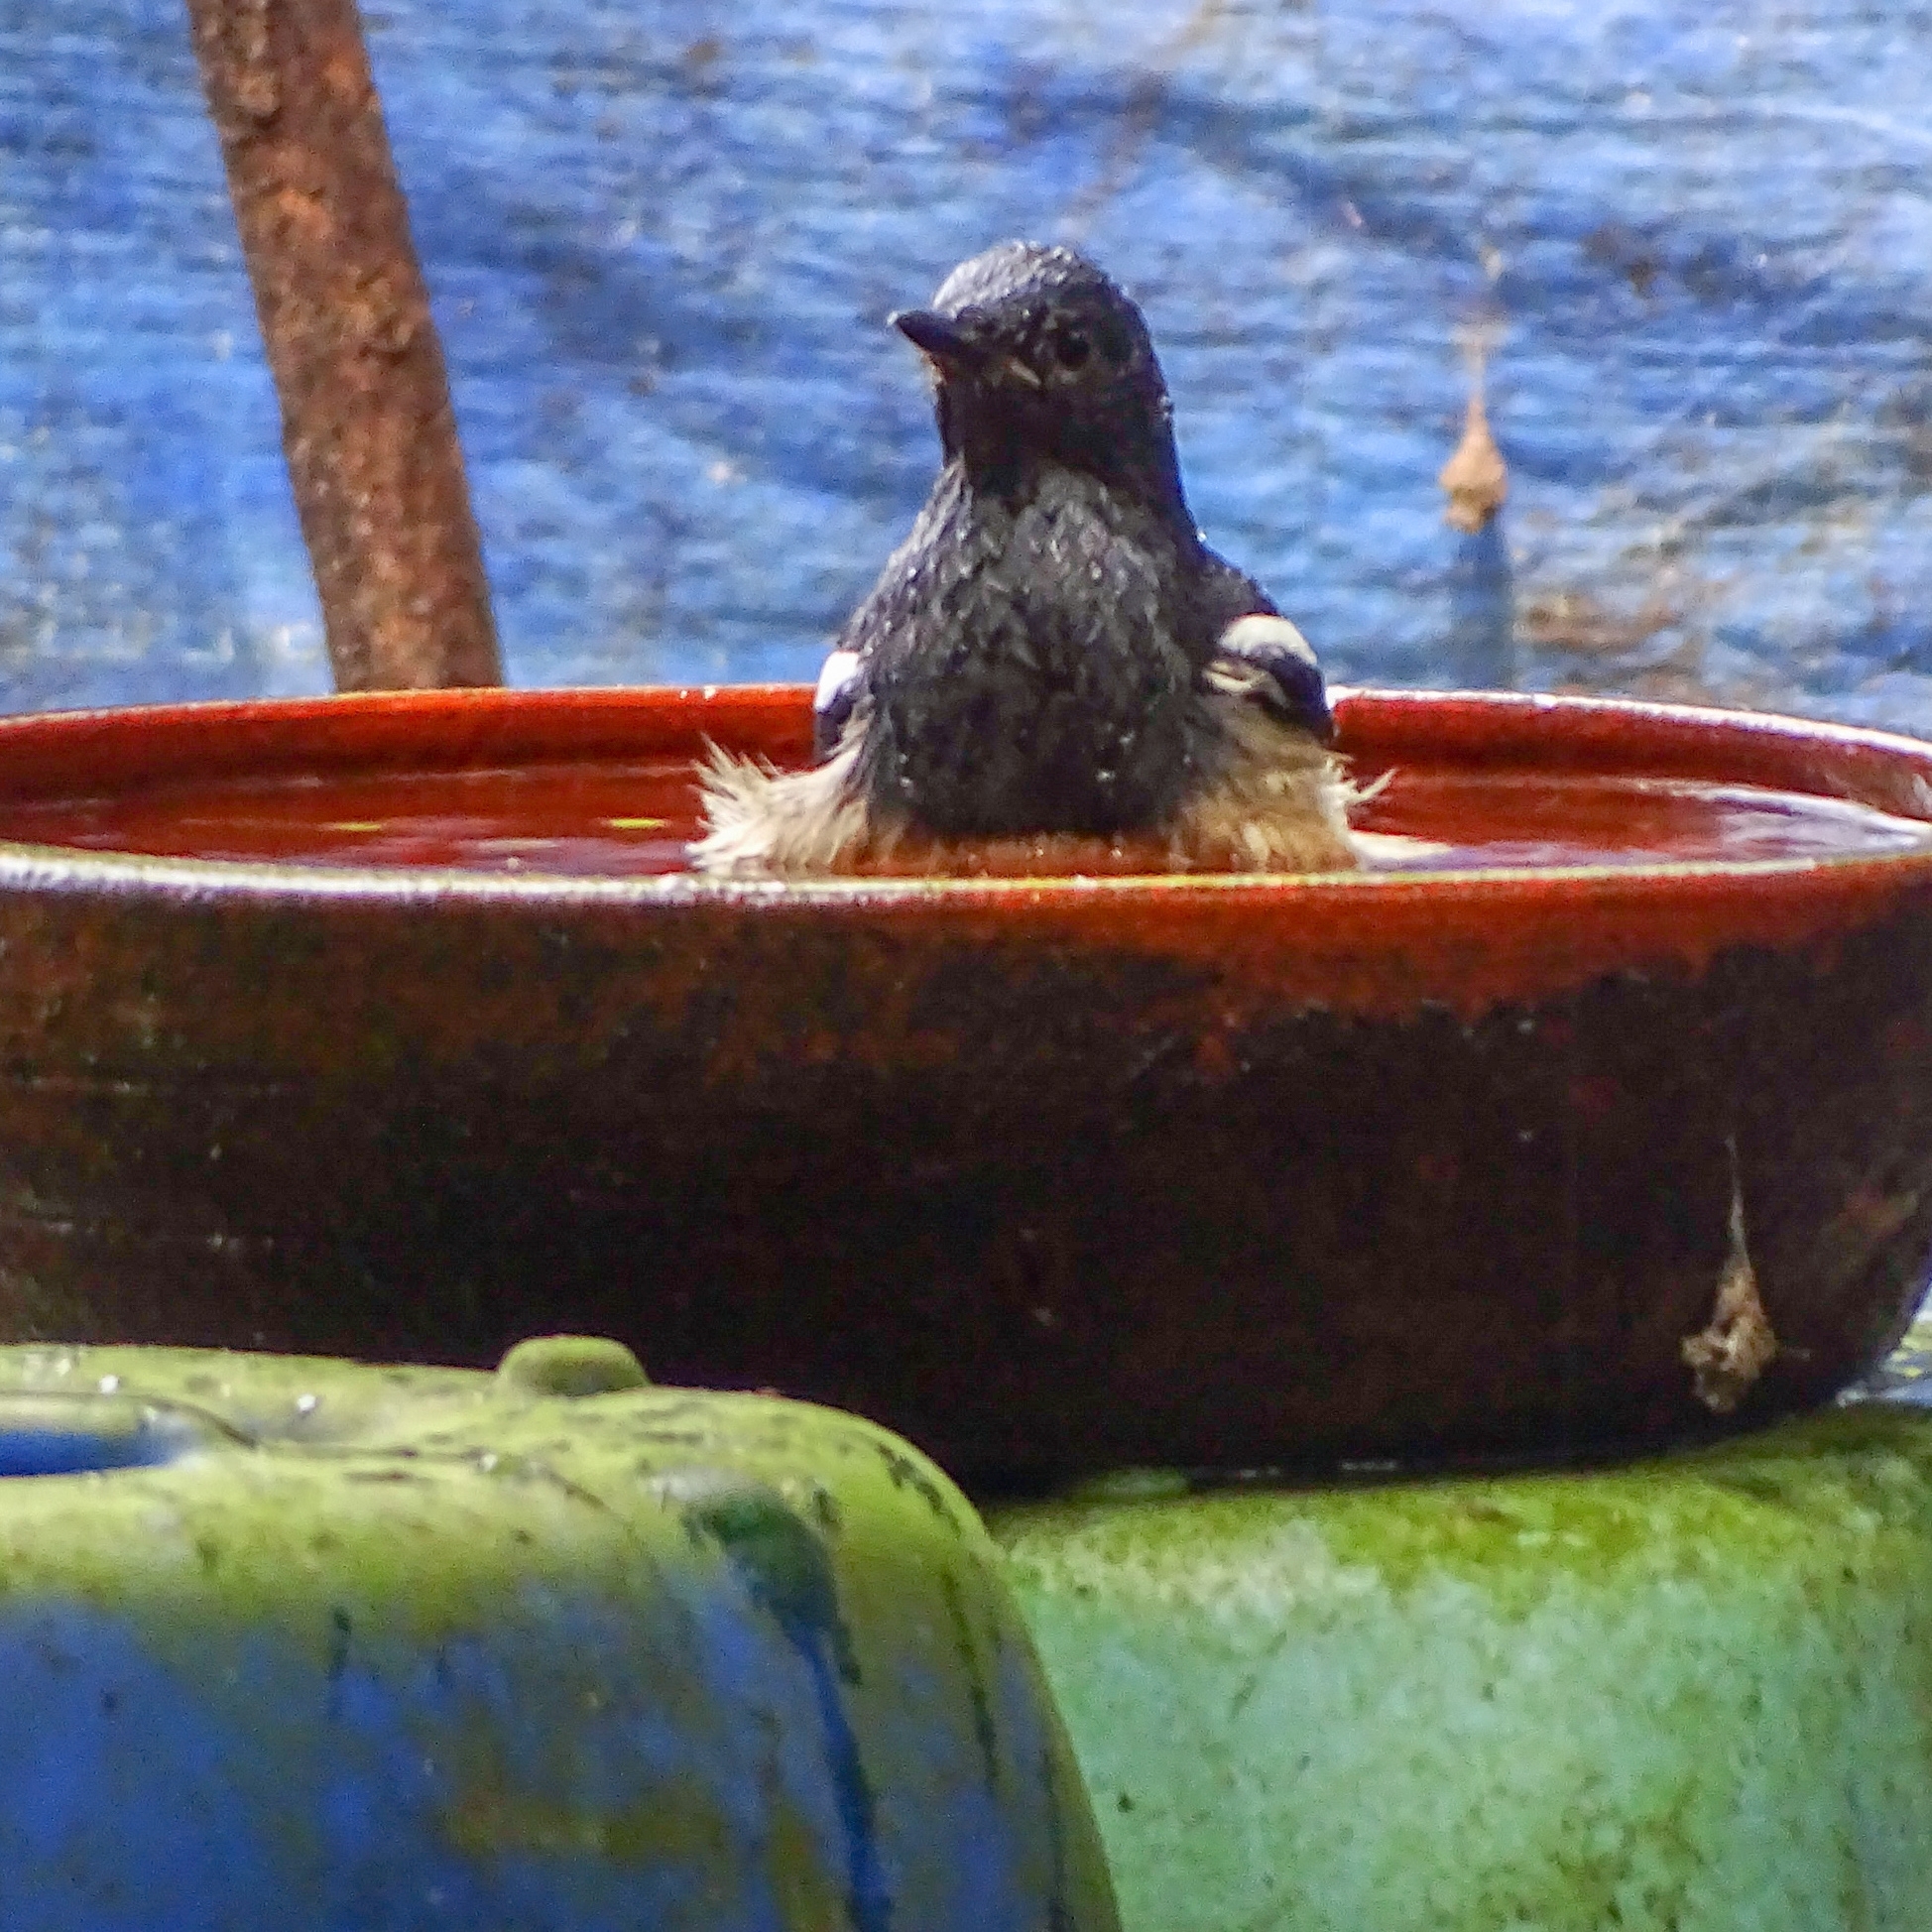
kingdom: Animalia
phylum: Chordata
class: Aves
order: Passeriformes
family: Muscicapidae
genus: Copsychus
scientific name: Copsychus saularis
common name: Oriental magpie-robin
